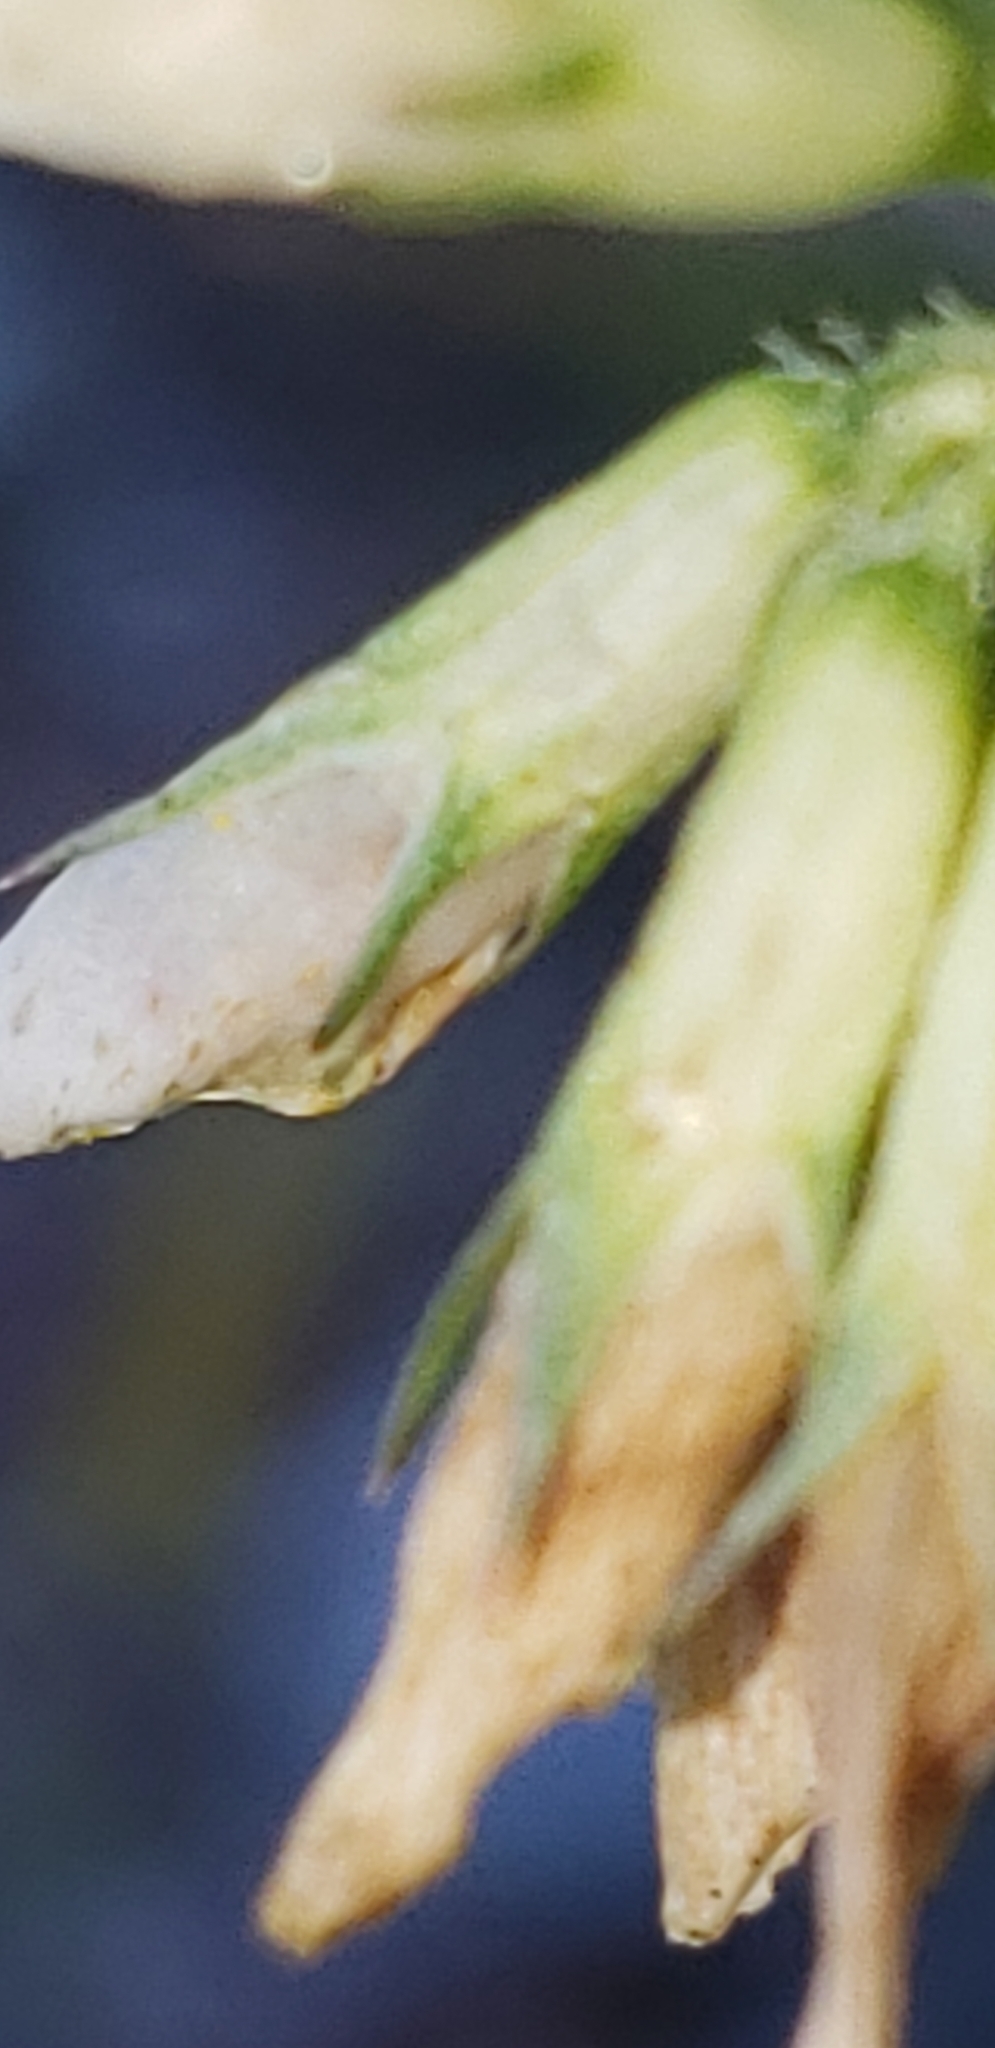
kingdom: Plantae
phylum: Tracheophyta
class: Magnoliopsida
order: Fabales
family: Fabaceae
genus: Trifolium
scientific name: Trifolium repens
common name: White clover
